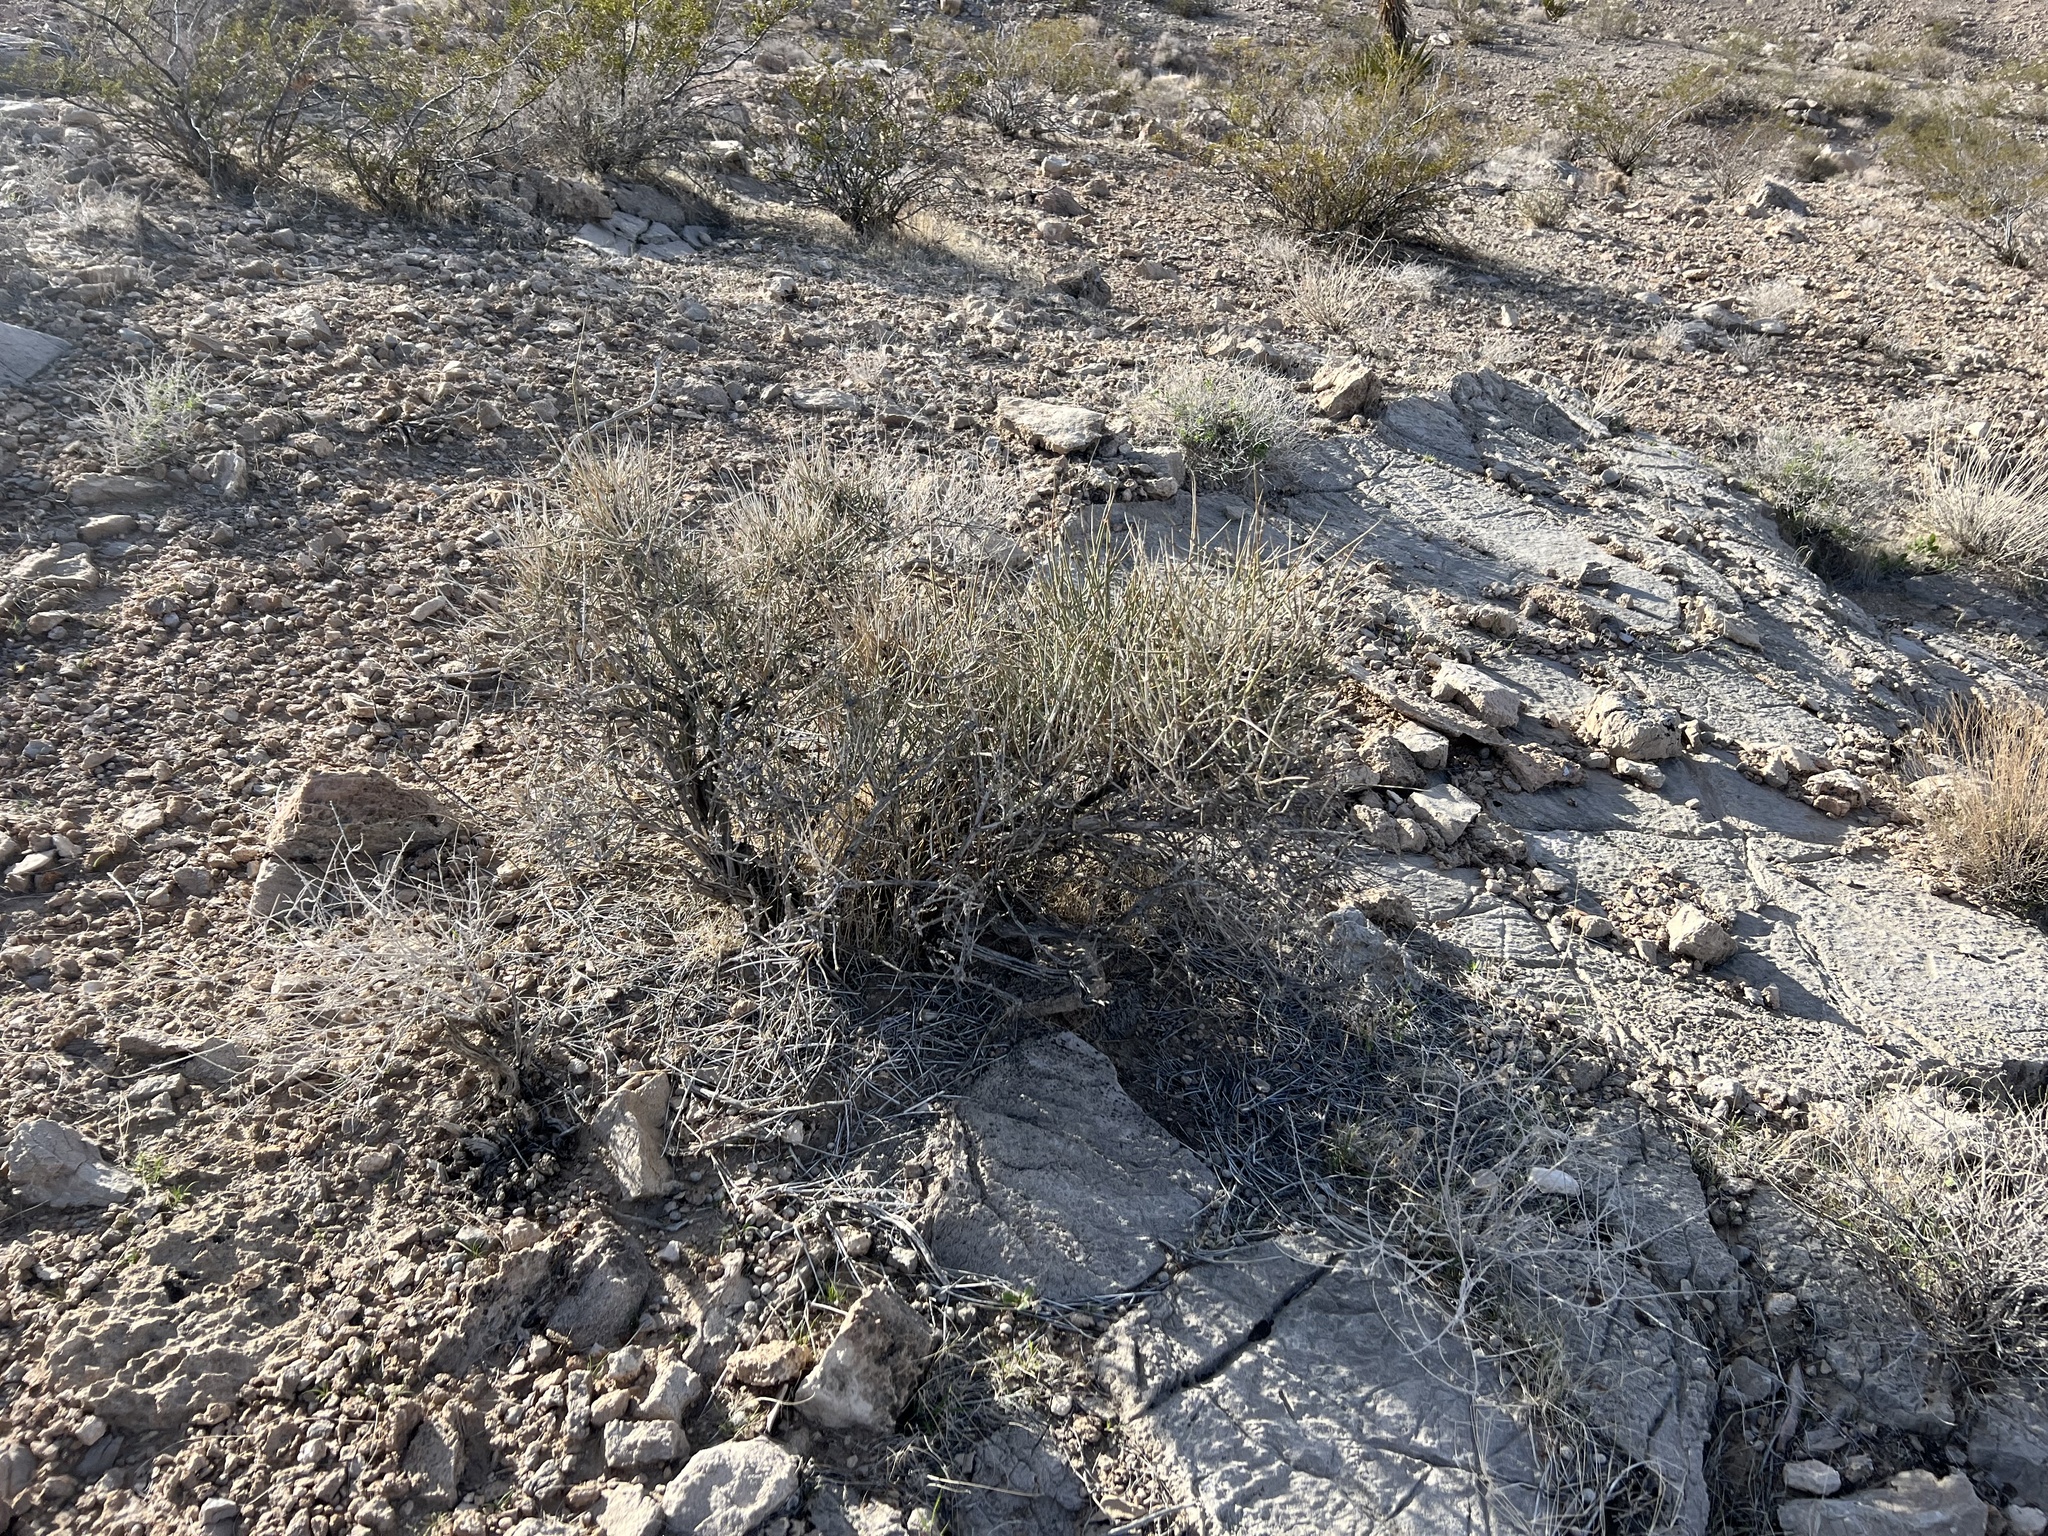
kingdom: Plantae
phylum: Tracheophyta
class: Gnetopsida
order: Ephedrales
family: Ephedraceae
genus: Ephedra
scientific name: Ephedra nevadensis
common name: Gray ephedra
